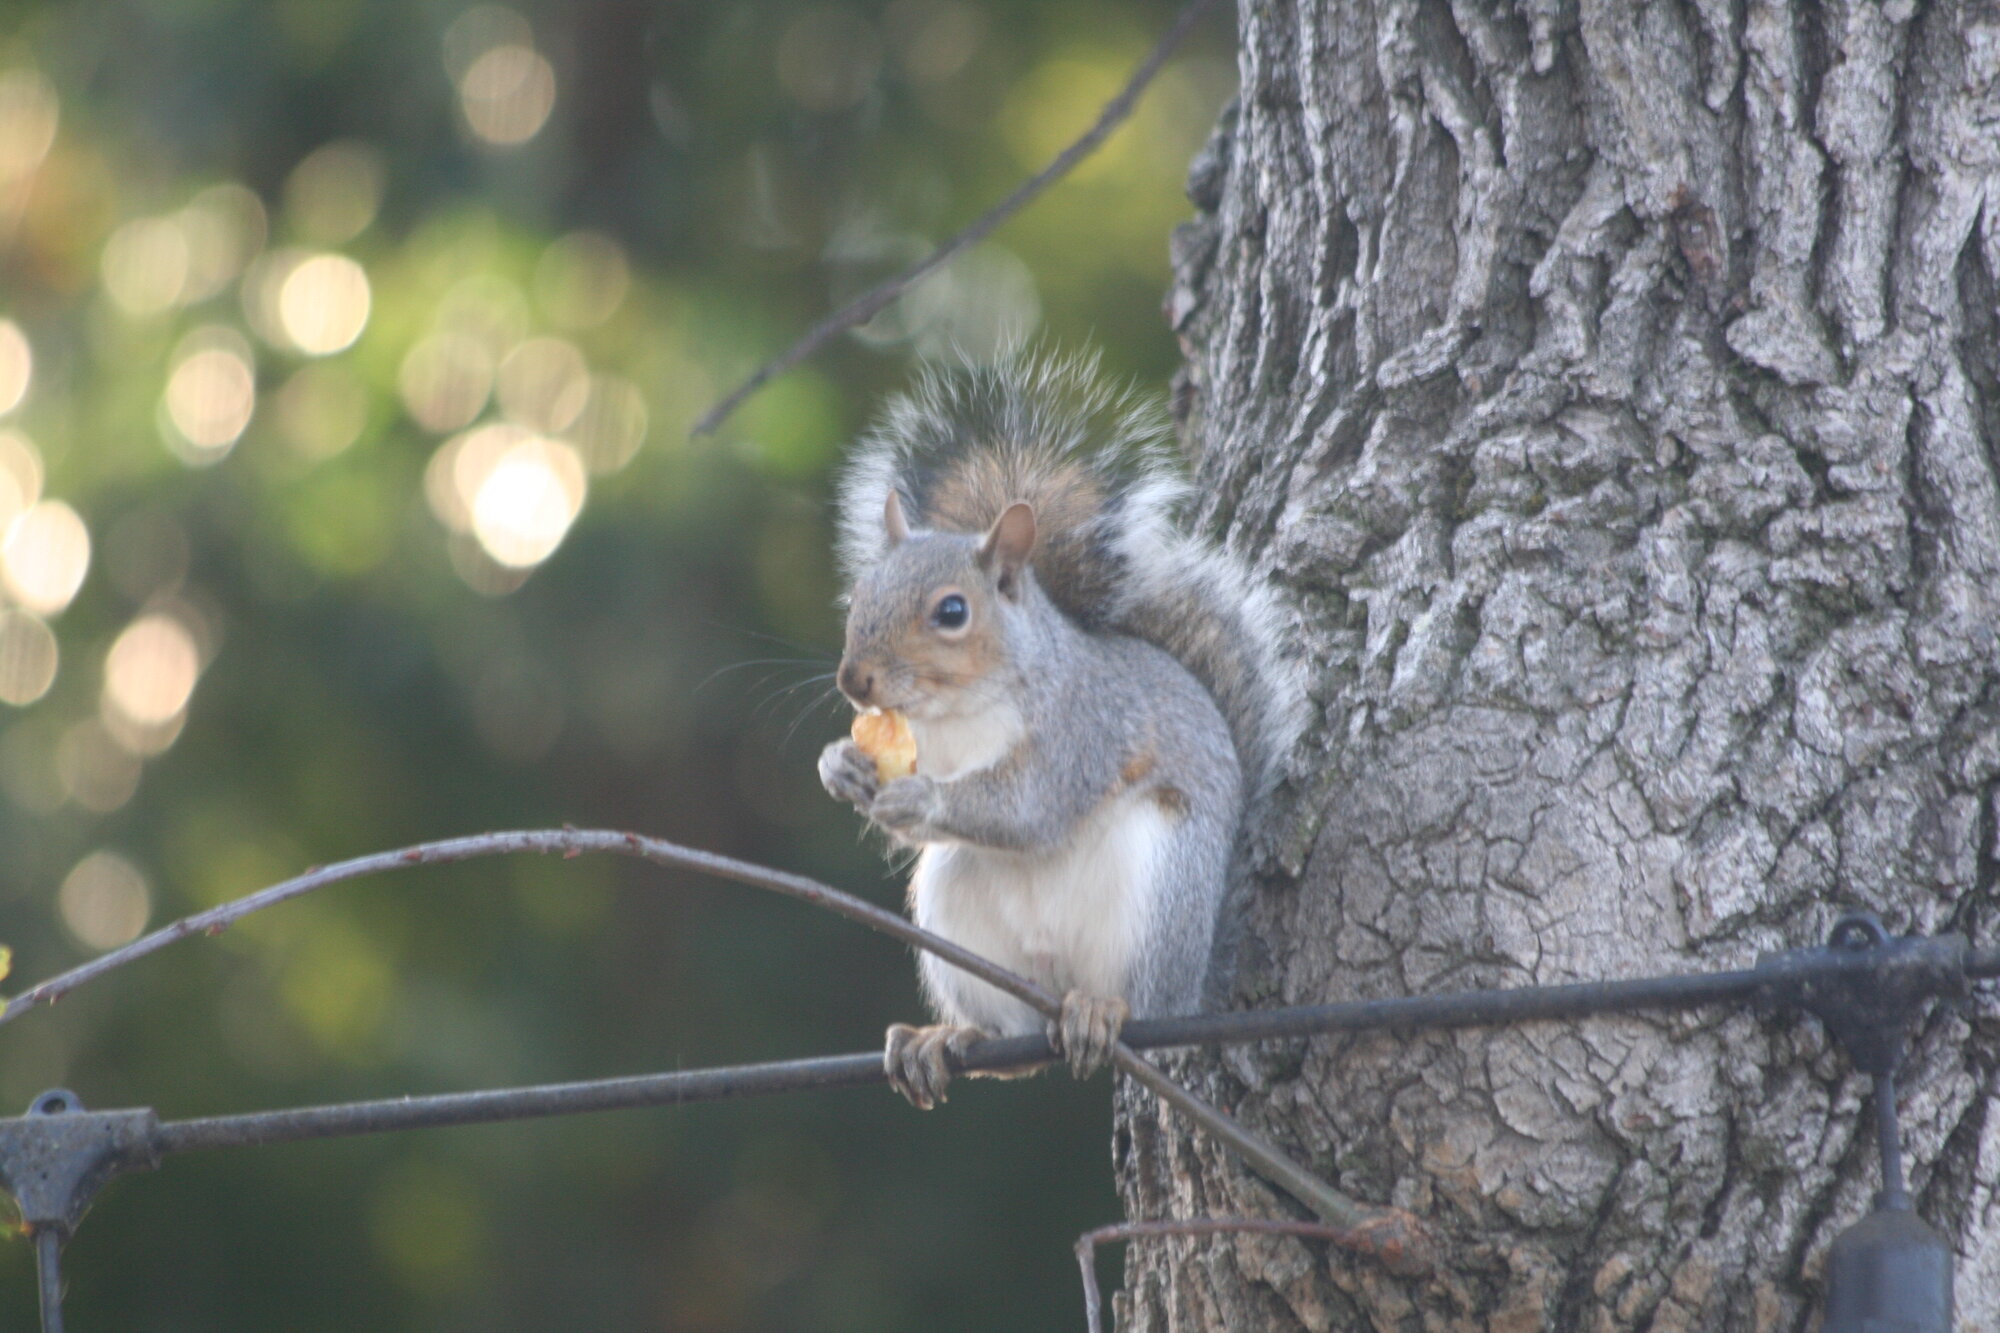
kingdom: Animalia
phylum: Chordata
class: Mammalia
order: Rodentia
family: Sciuridae
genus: Sciurus
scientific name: Sciurus carolinensis
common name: Eastern gray squirrel
